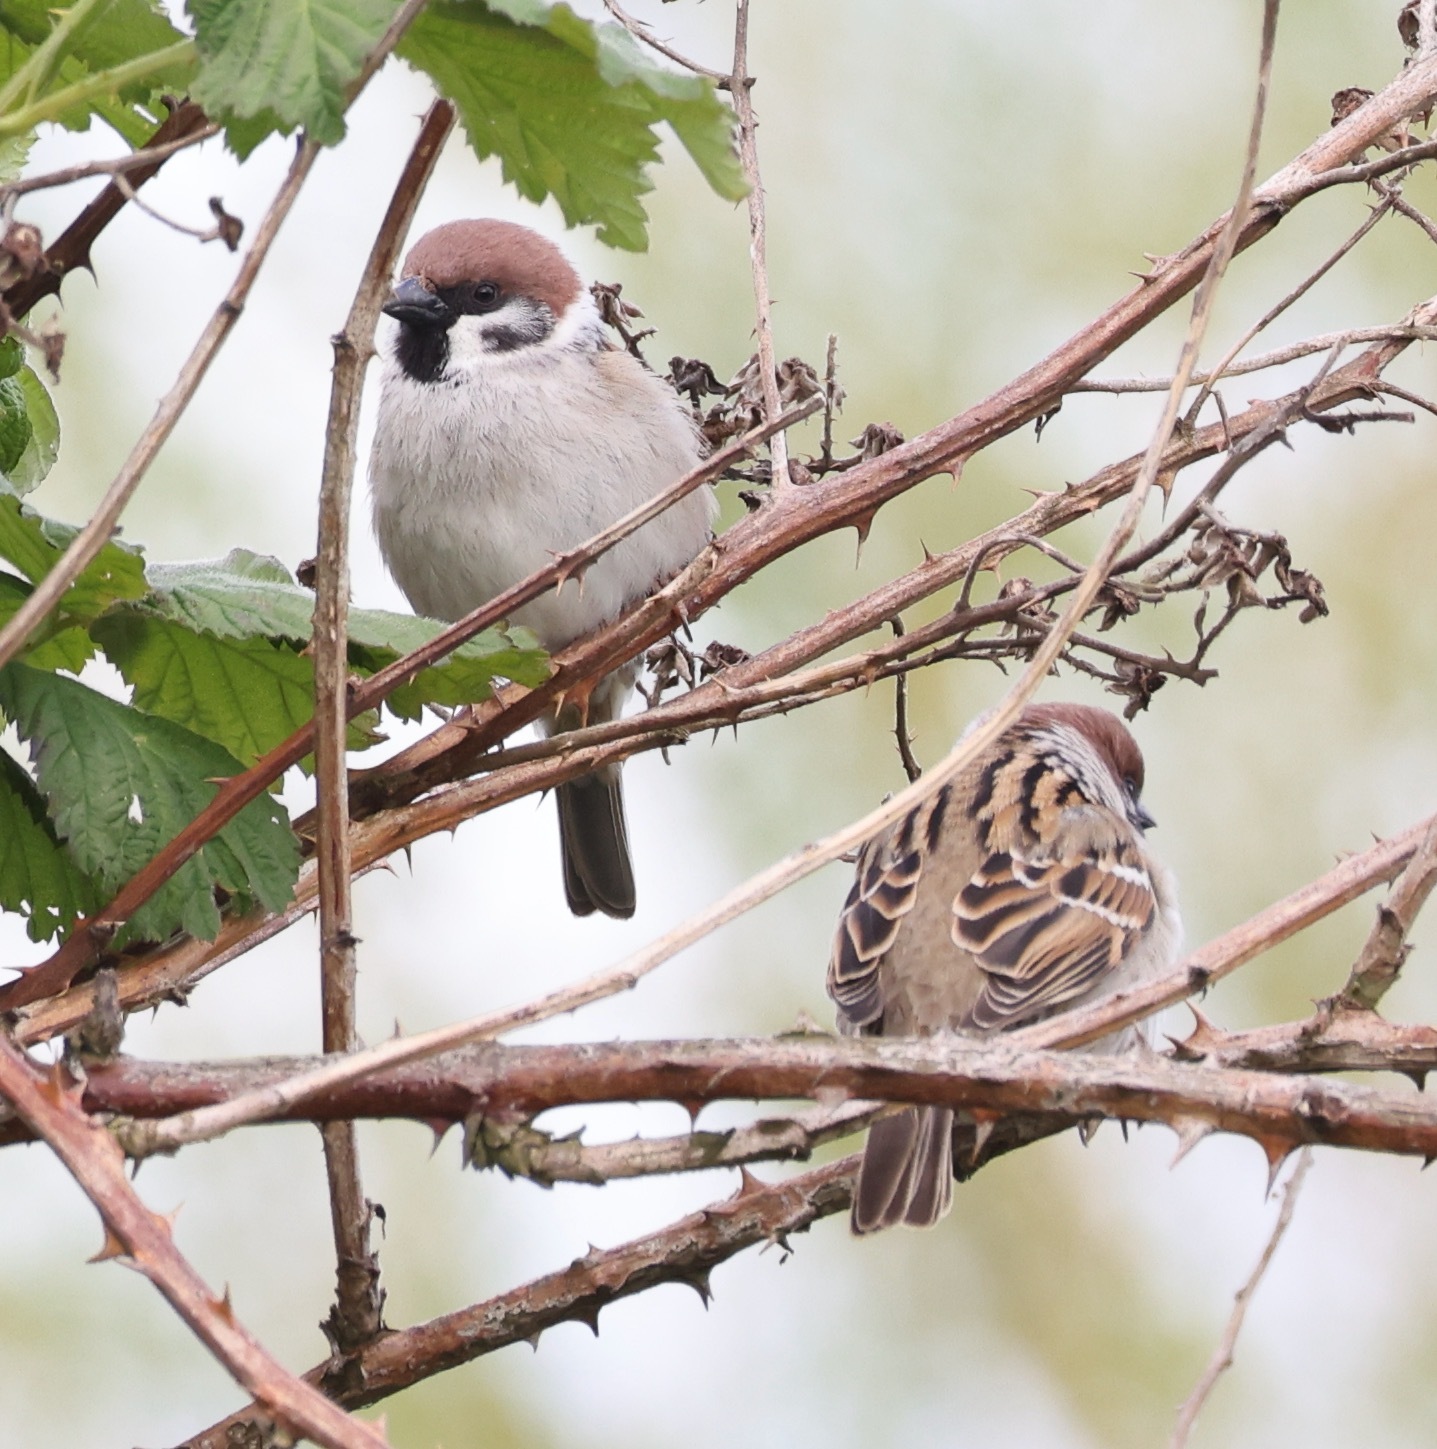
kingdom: Animalia
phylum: Chordata
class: Aves
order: Passeriformes
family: Passeridae
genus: Passer
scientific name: Passer montanus
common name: Eurasian tree sparrow
